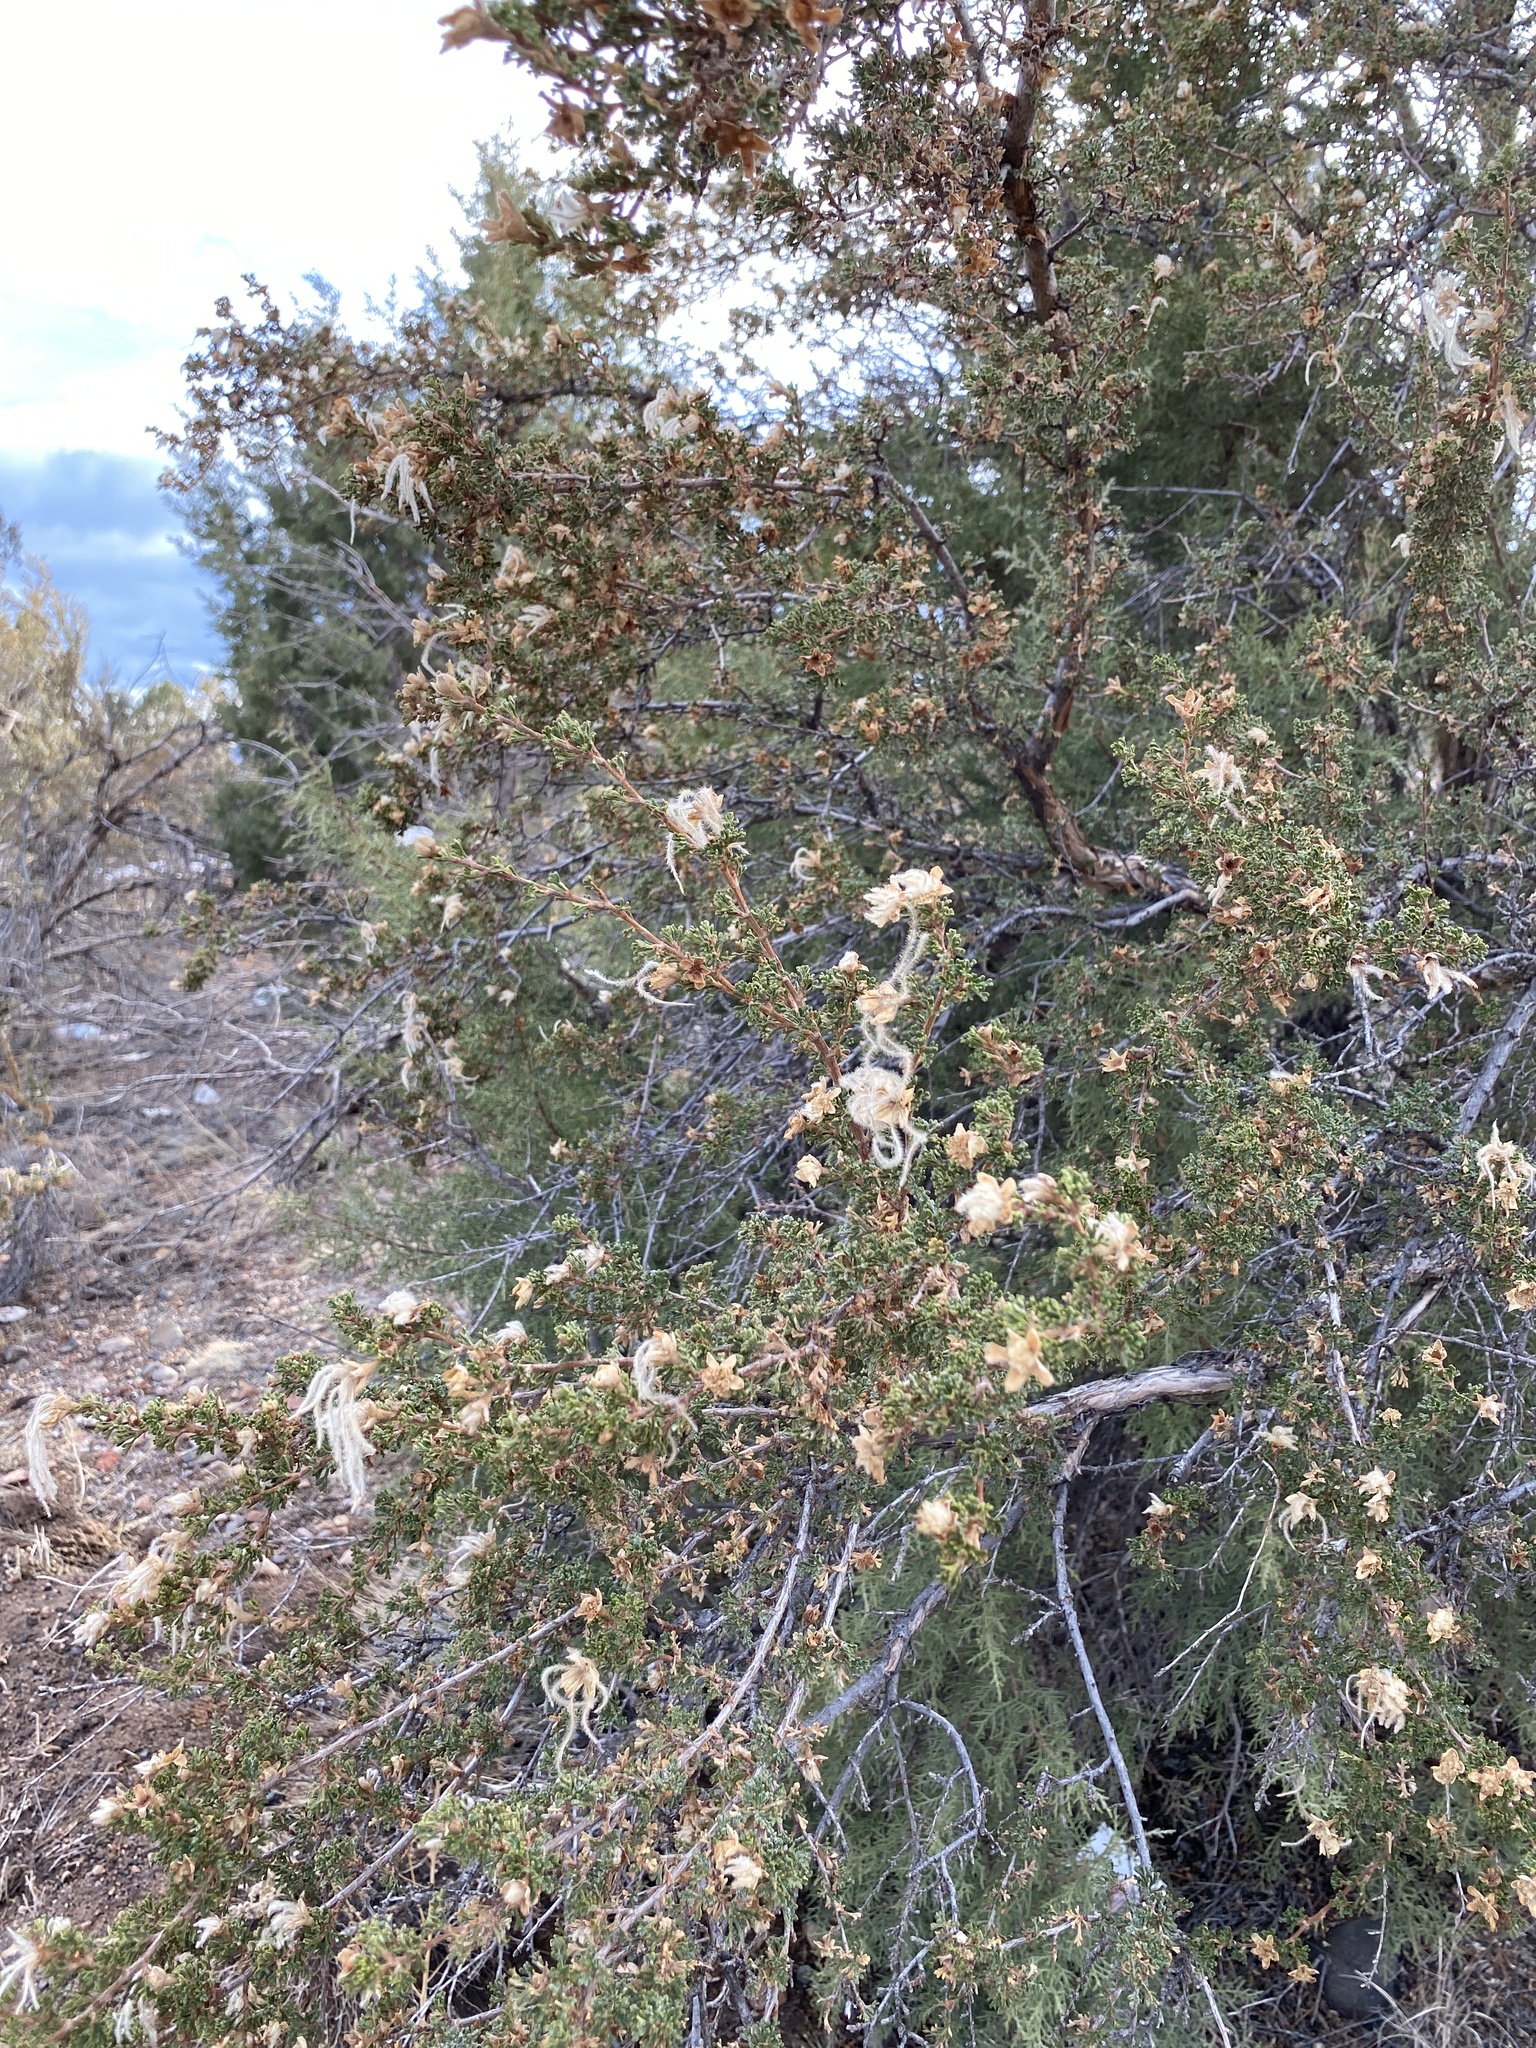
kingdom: Plantae
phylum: Tracheophyta
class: Magnoliopsida
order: Rosales
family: Rosaceae
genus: Purshia
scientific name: Purshia stansburiana
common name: Stansbury's cliffrose
